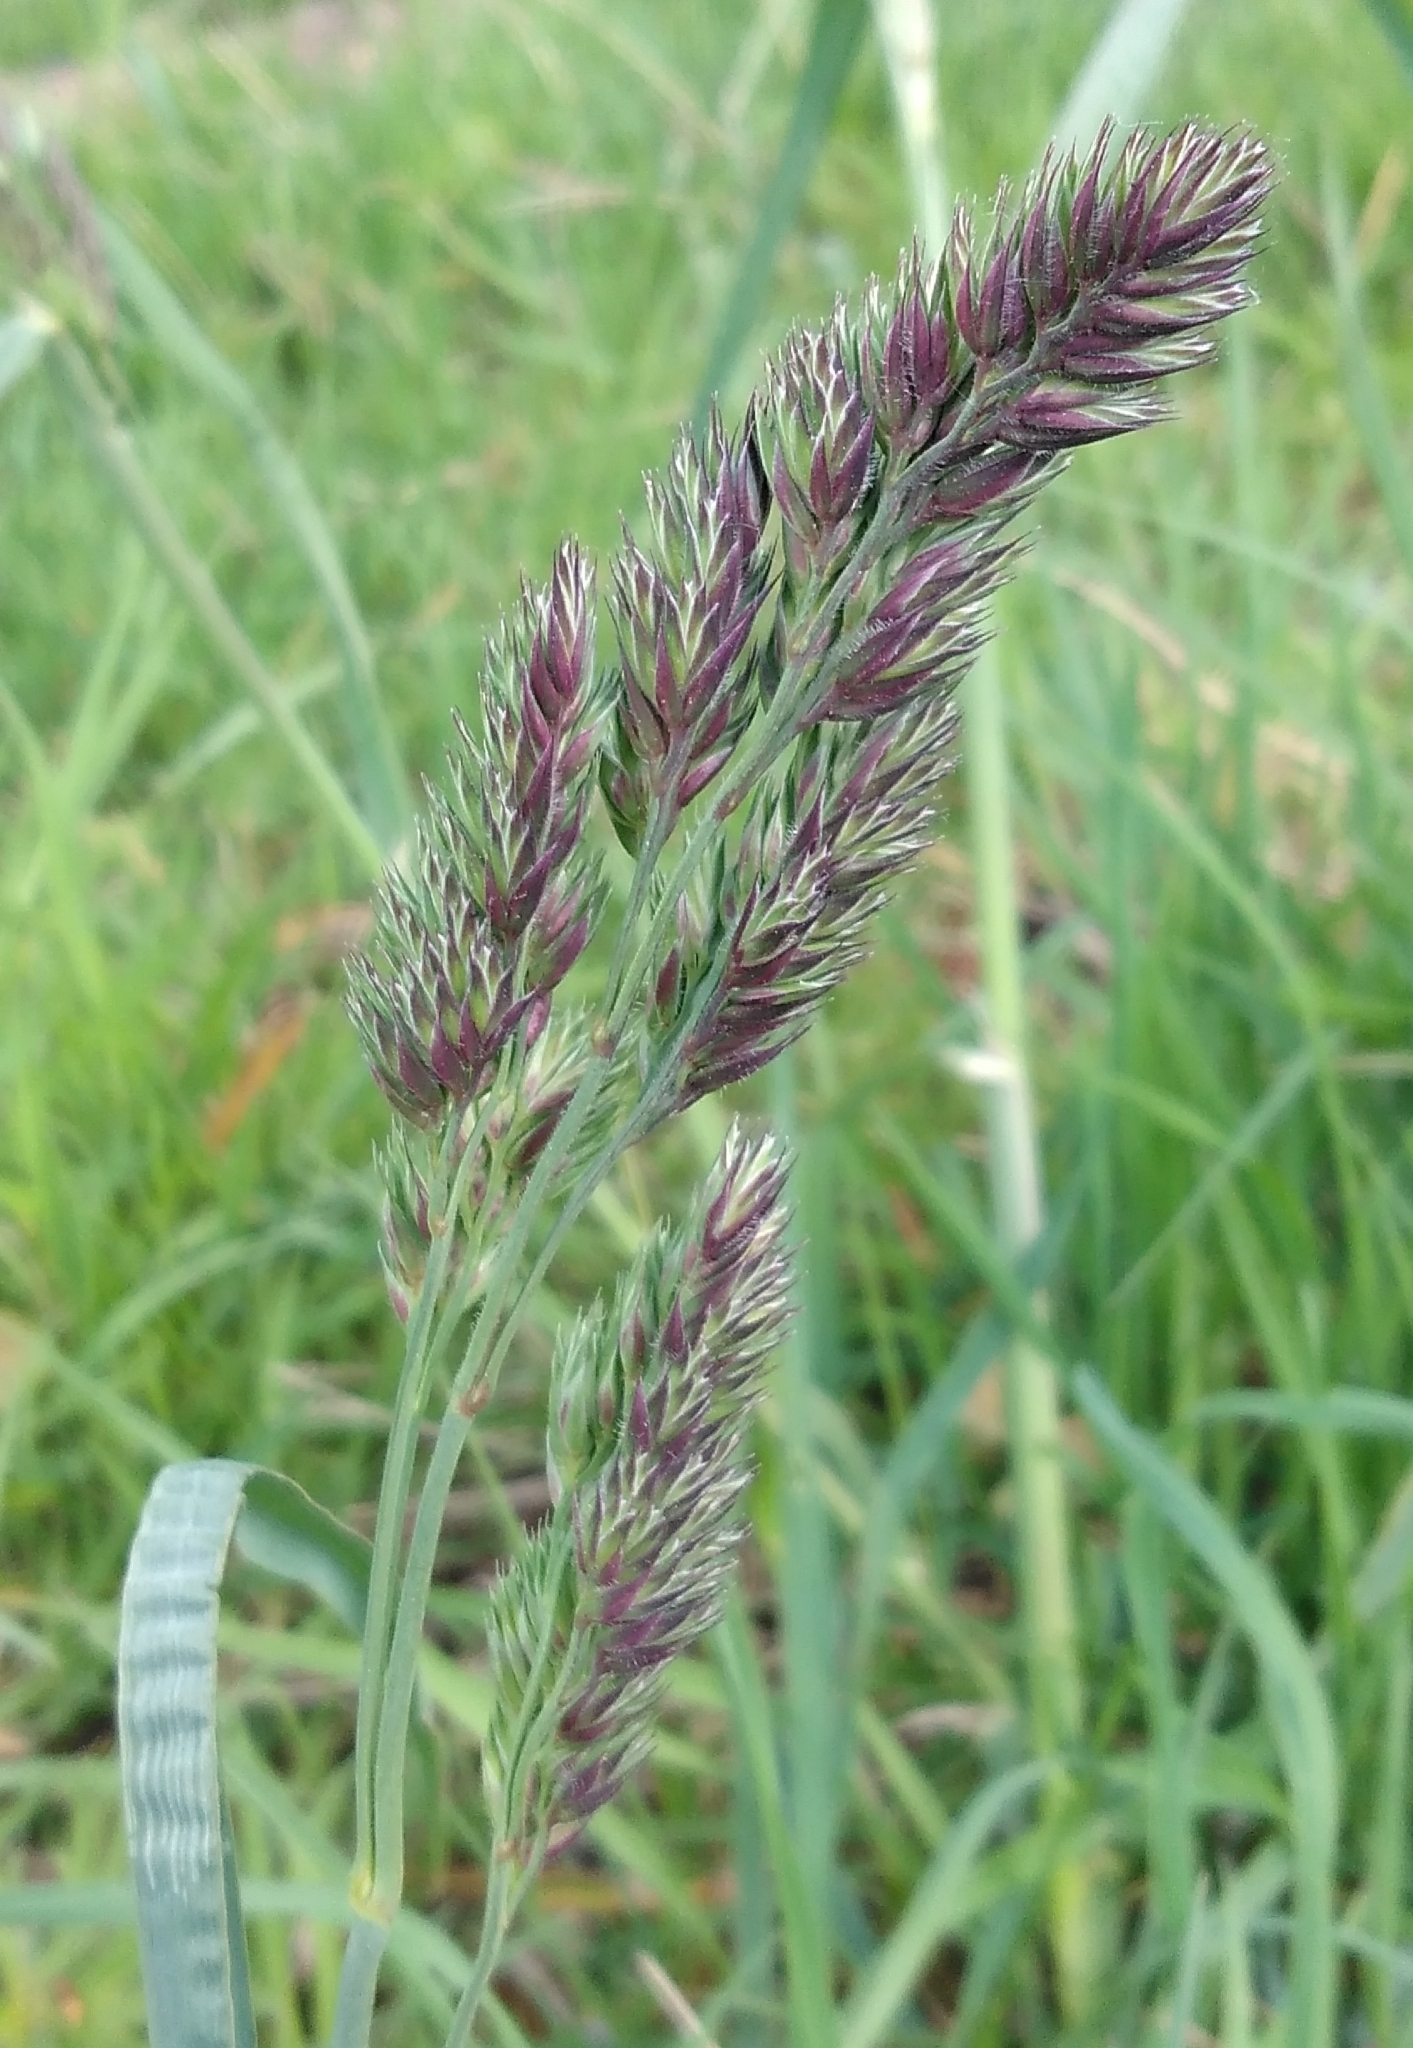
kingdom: Plantae
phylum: Tracheophyta
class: Liliopsida
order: Poales
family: Poaceae
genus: Dactylis
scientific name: Dactylis glomerata
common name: Orchardgrass
